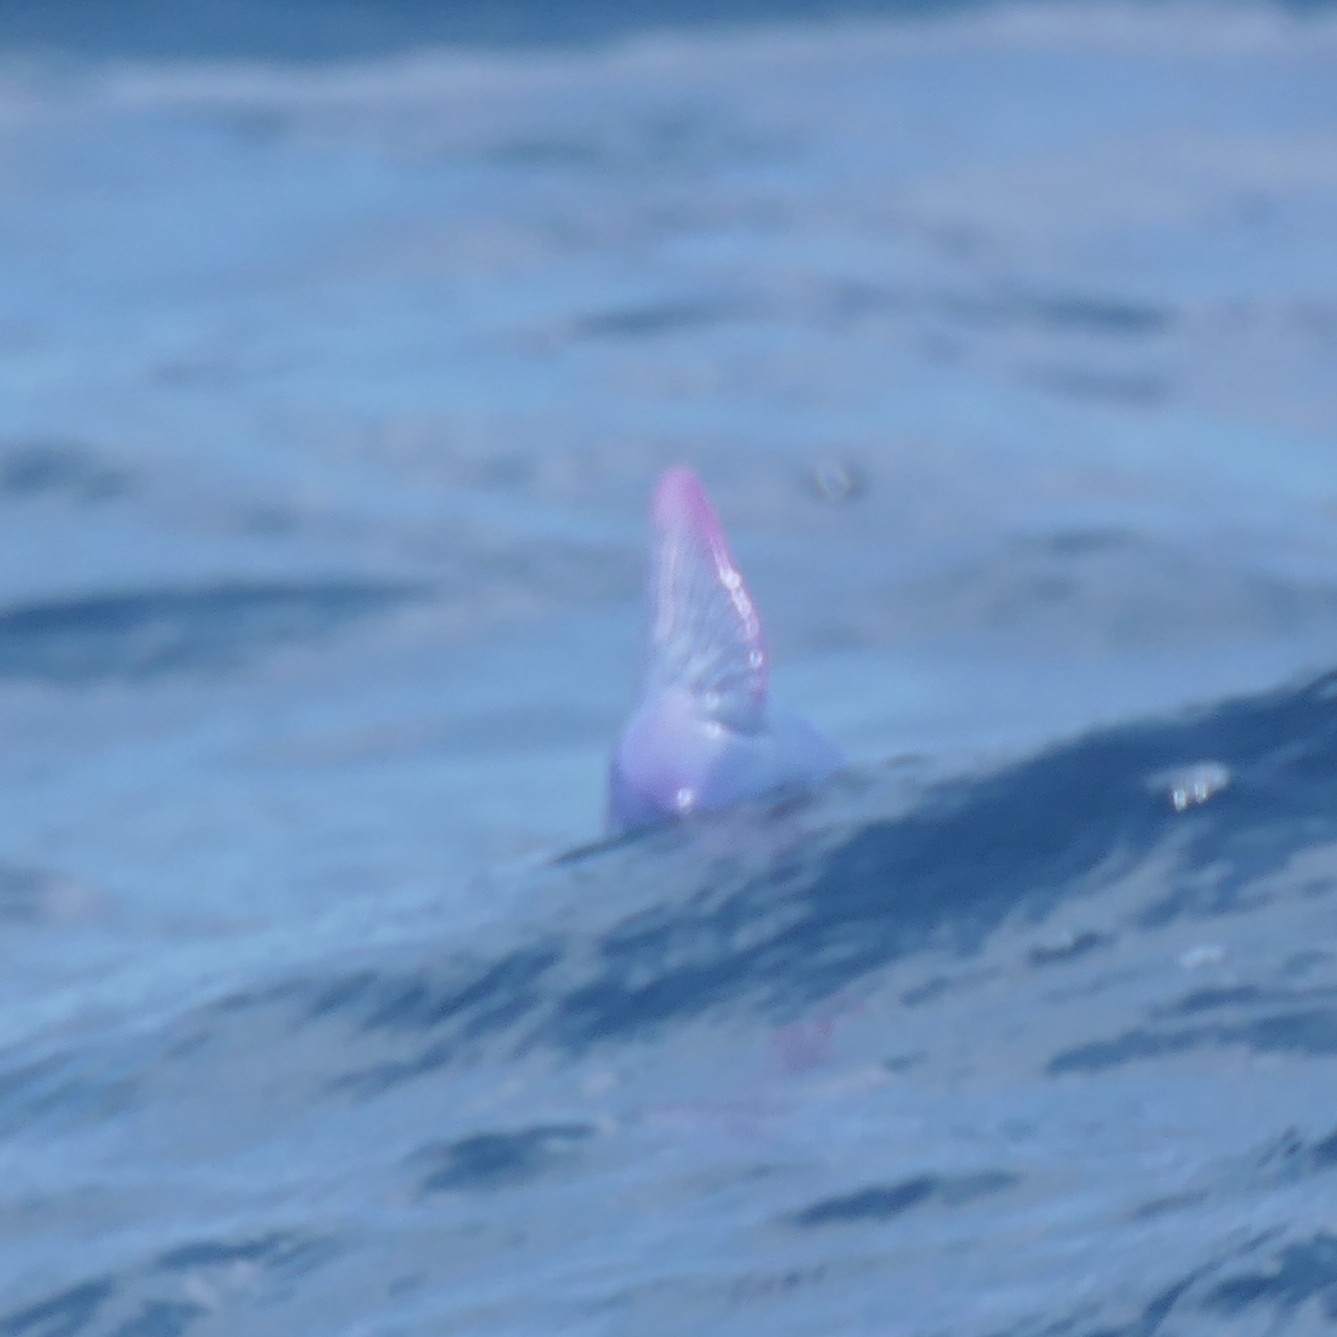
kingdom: Animalia
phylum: Cnidaria
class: Hydrozoa
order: Siphonophorae
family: Physaliidae
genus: Physalia
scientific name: Physalia physalis
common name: Portuguese man-of-war
